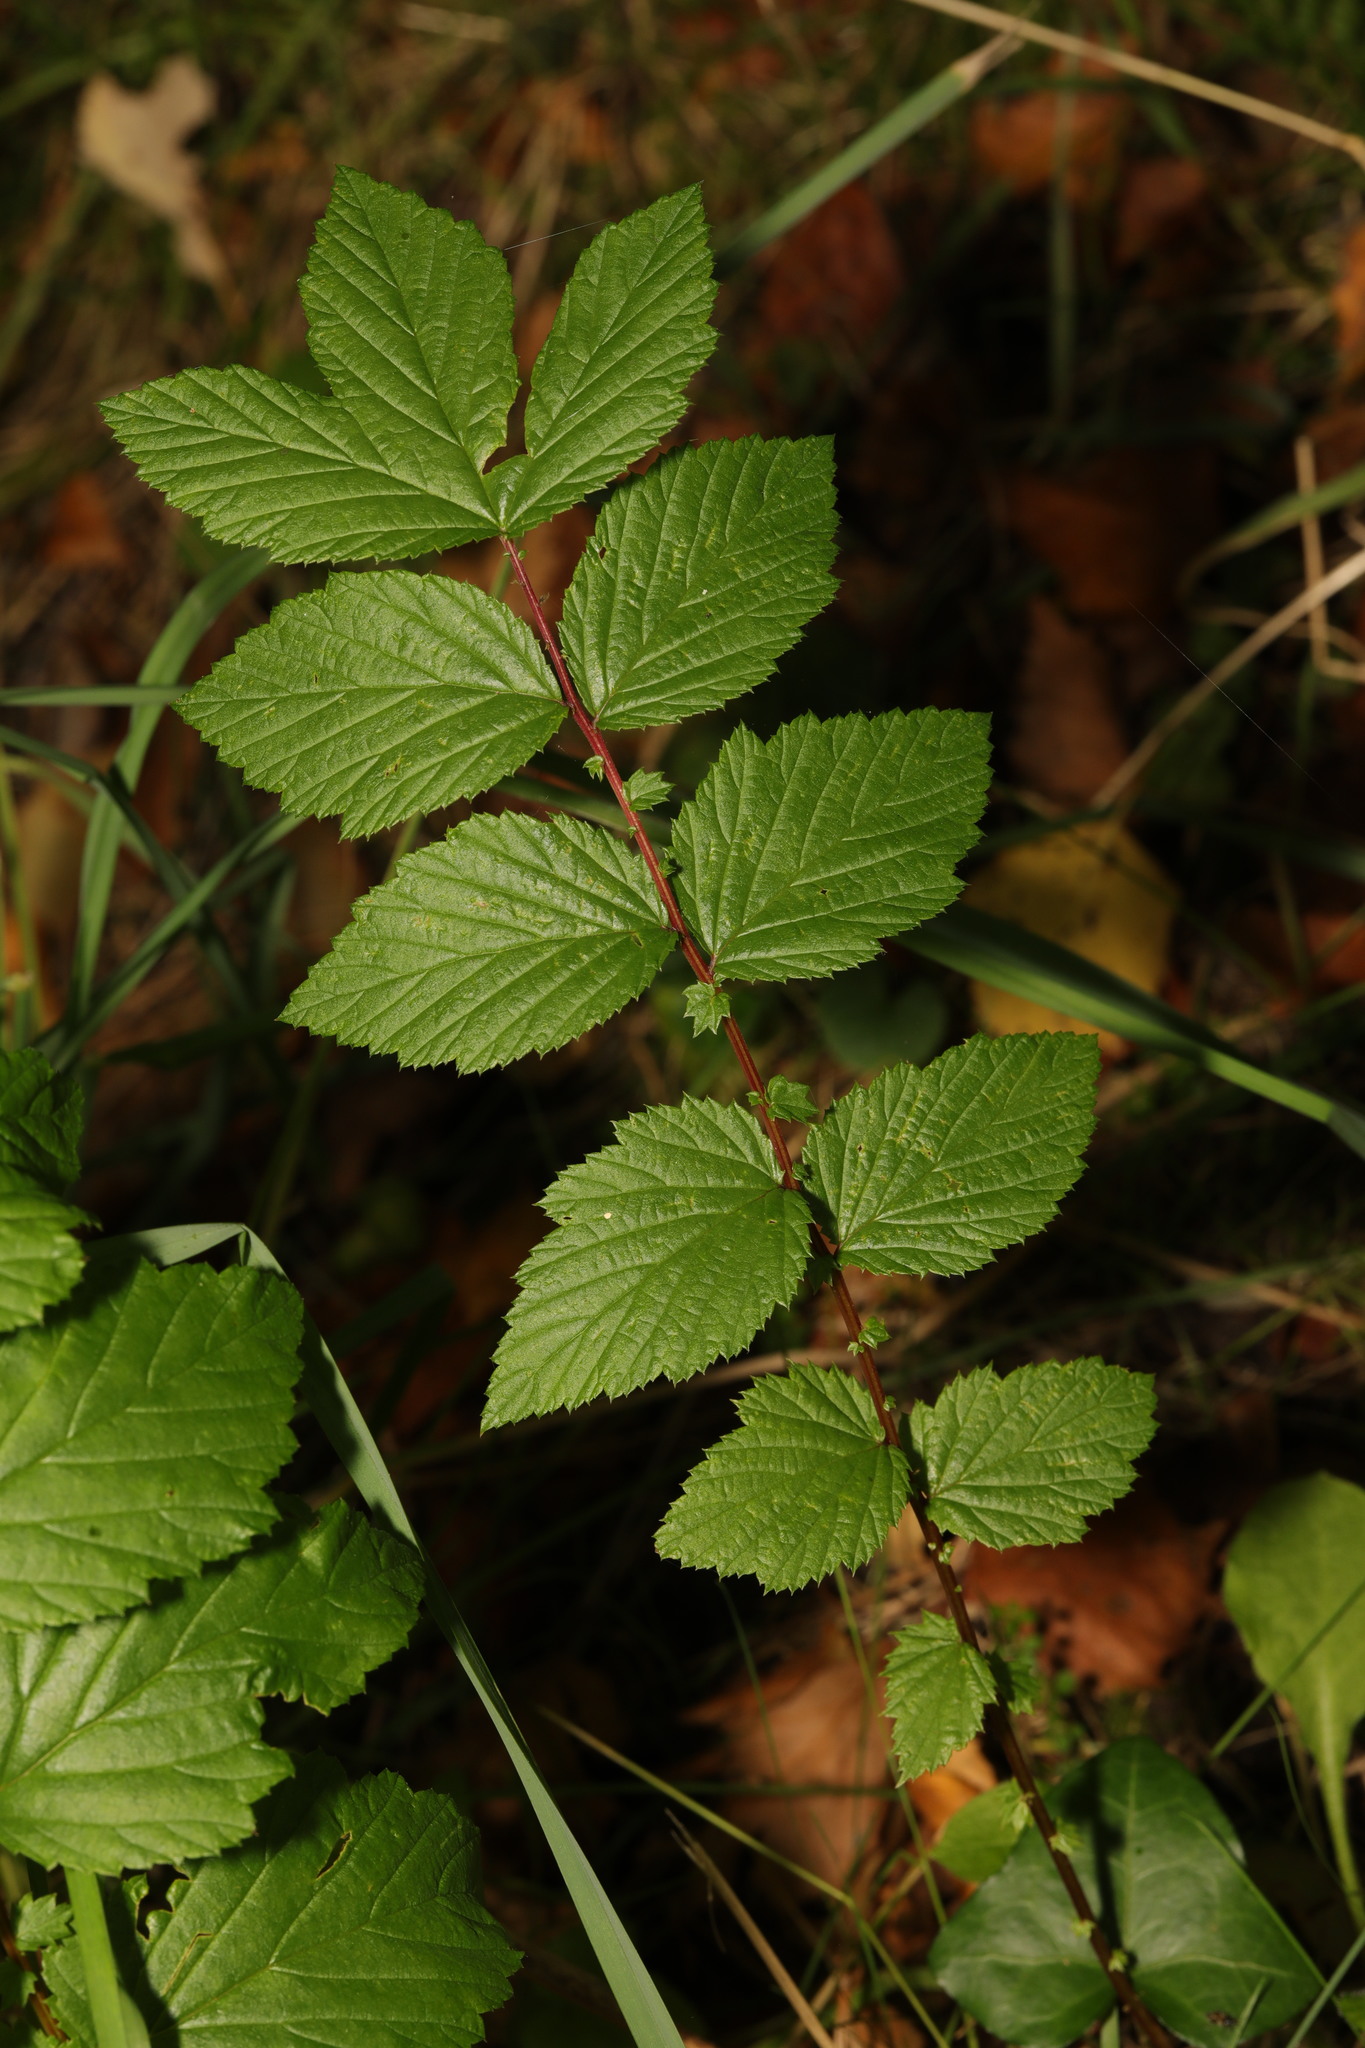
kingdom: Plantae
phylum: Tracheophyta
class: Magnoliopsida
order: Rosales
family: Rosaceae
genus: Filipendula
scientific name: Filipendula ulmaria
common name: Meadowsweet
